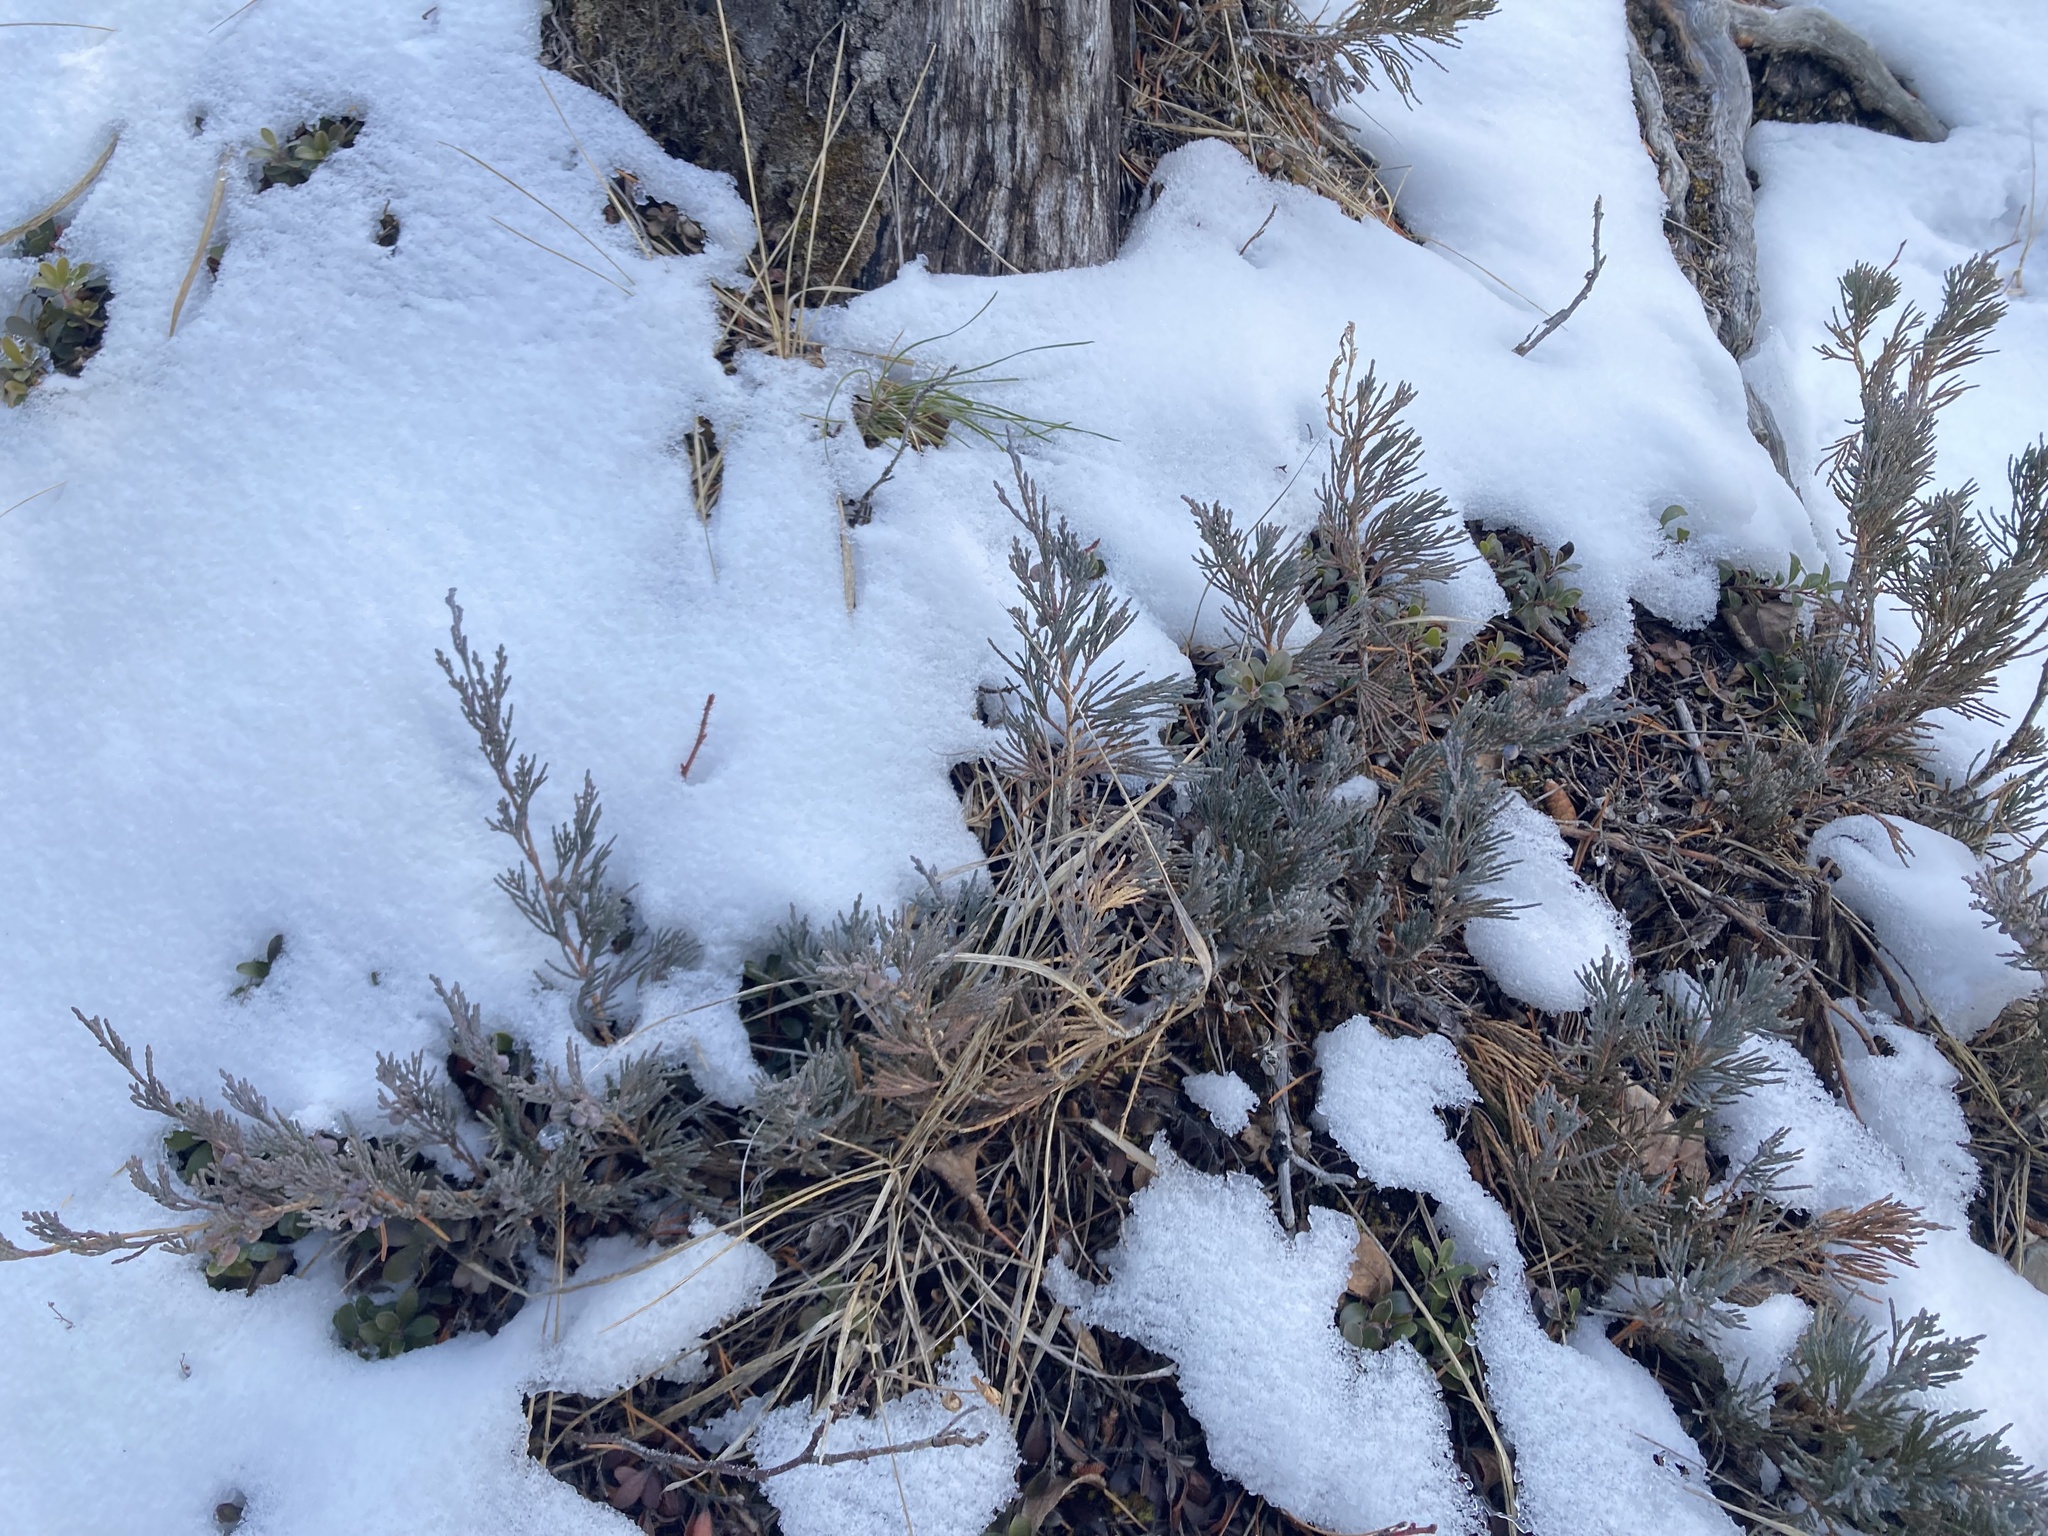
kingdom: Plantae
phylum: Tracheophyta
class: Pinopsida
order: Pinales
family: Cupressaceae
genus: Juniperus
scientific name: Juniperus horizontalis
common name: Creeping juniper
